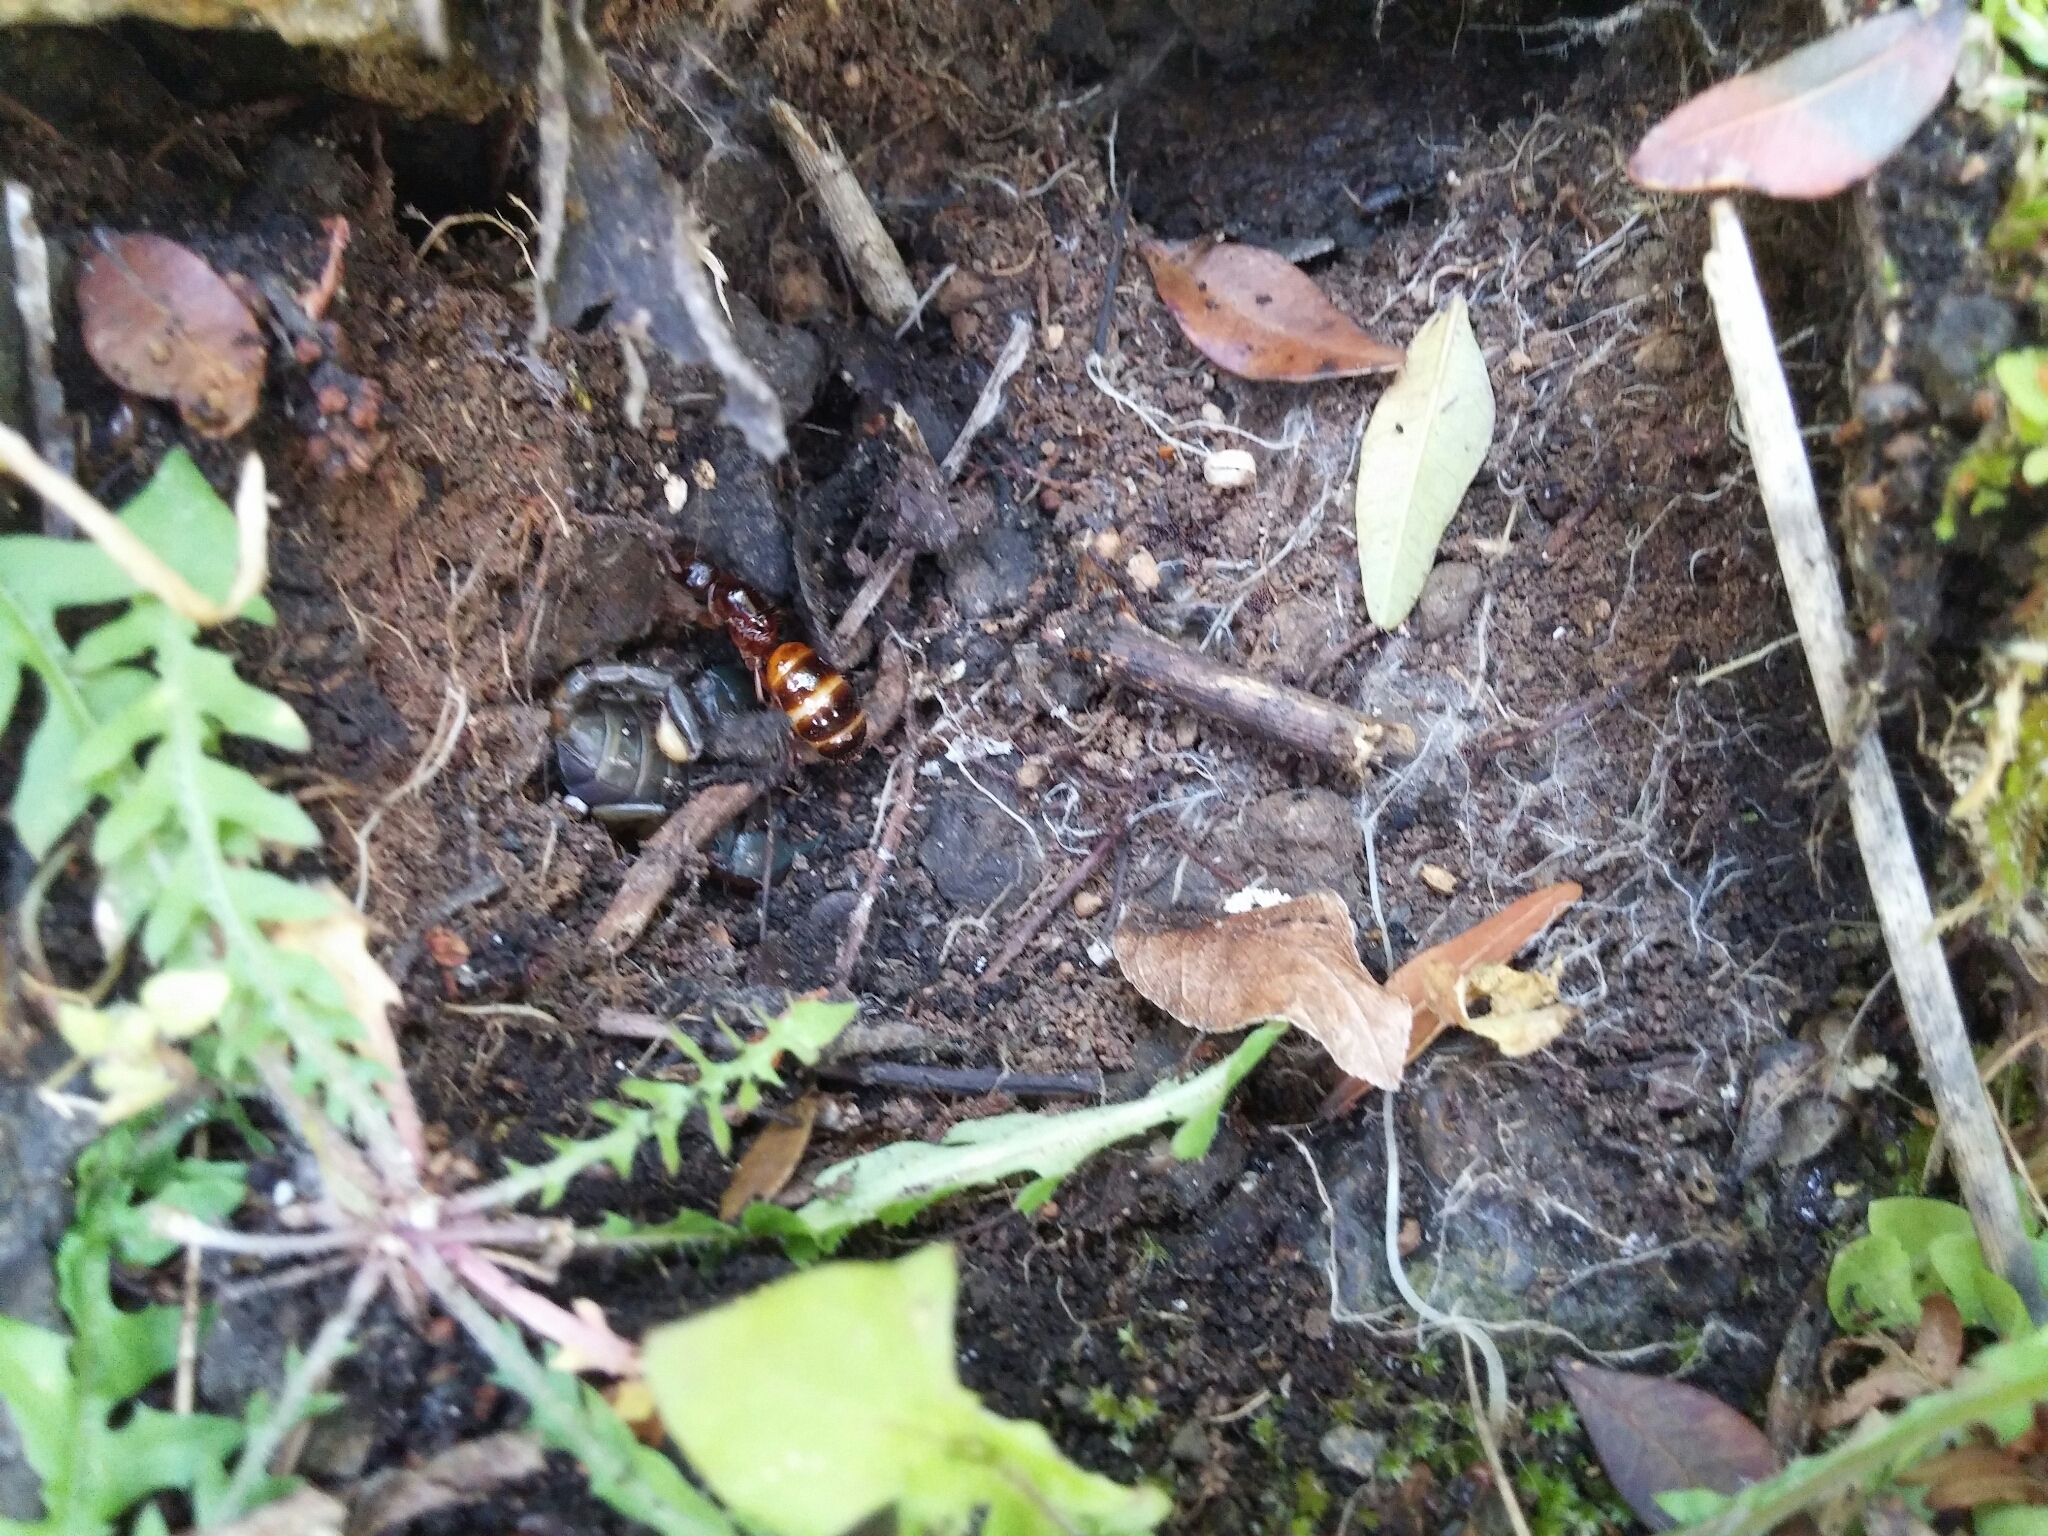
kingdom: Animalia
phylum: Arthropoda
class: Insecta
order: Hymenoptera
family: Formicidae
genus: Camponotus
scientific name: Camponotus nylanderi
